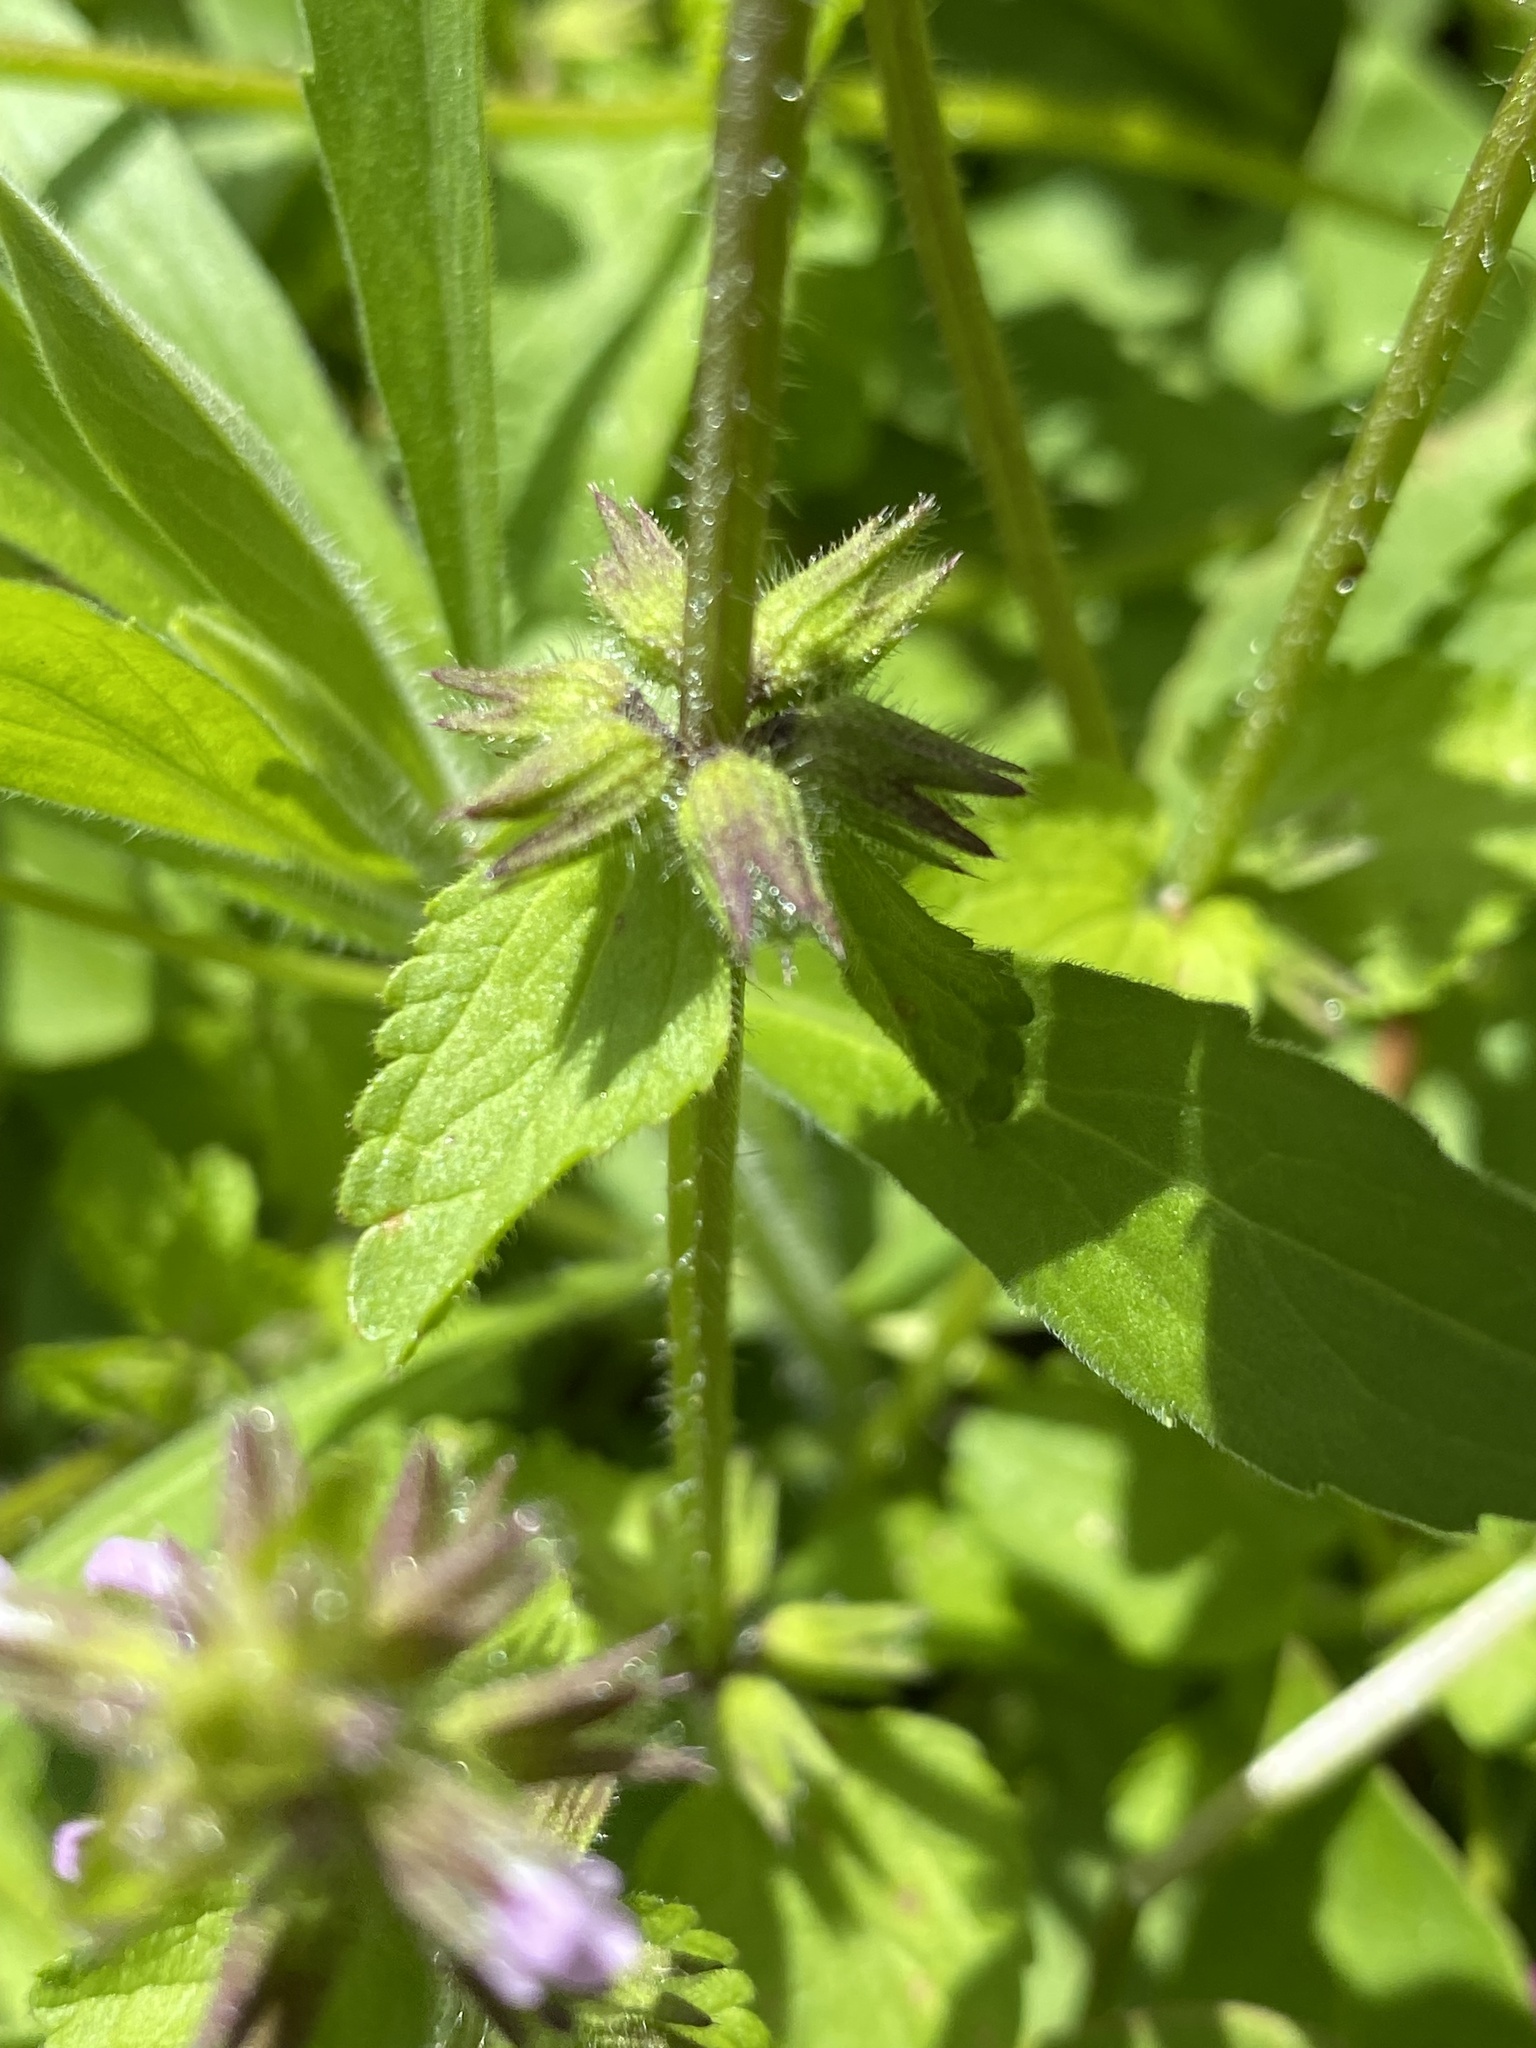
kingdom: Plantae
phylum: Tracheophyta
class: Magnoliopsida
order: Lamiales
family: Lamiaceae
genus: Stachys
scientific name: Stachys arvensis
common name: Field woundwort
